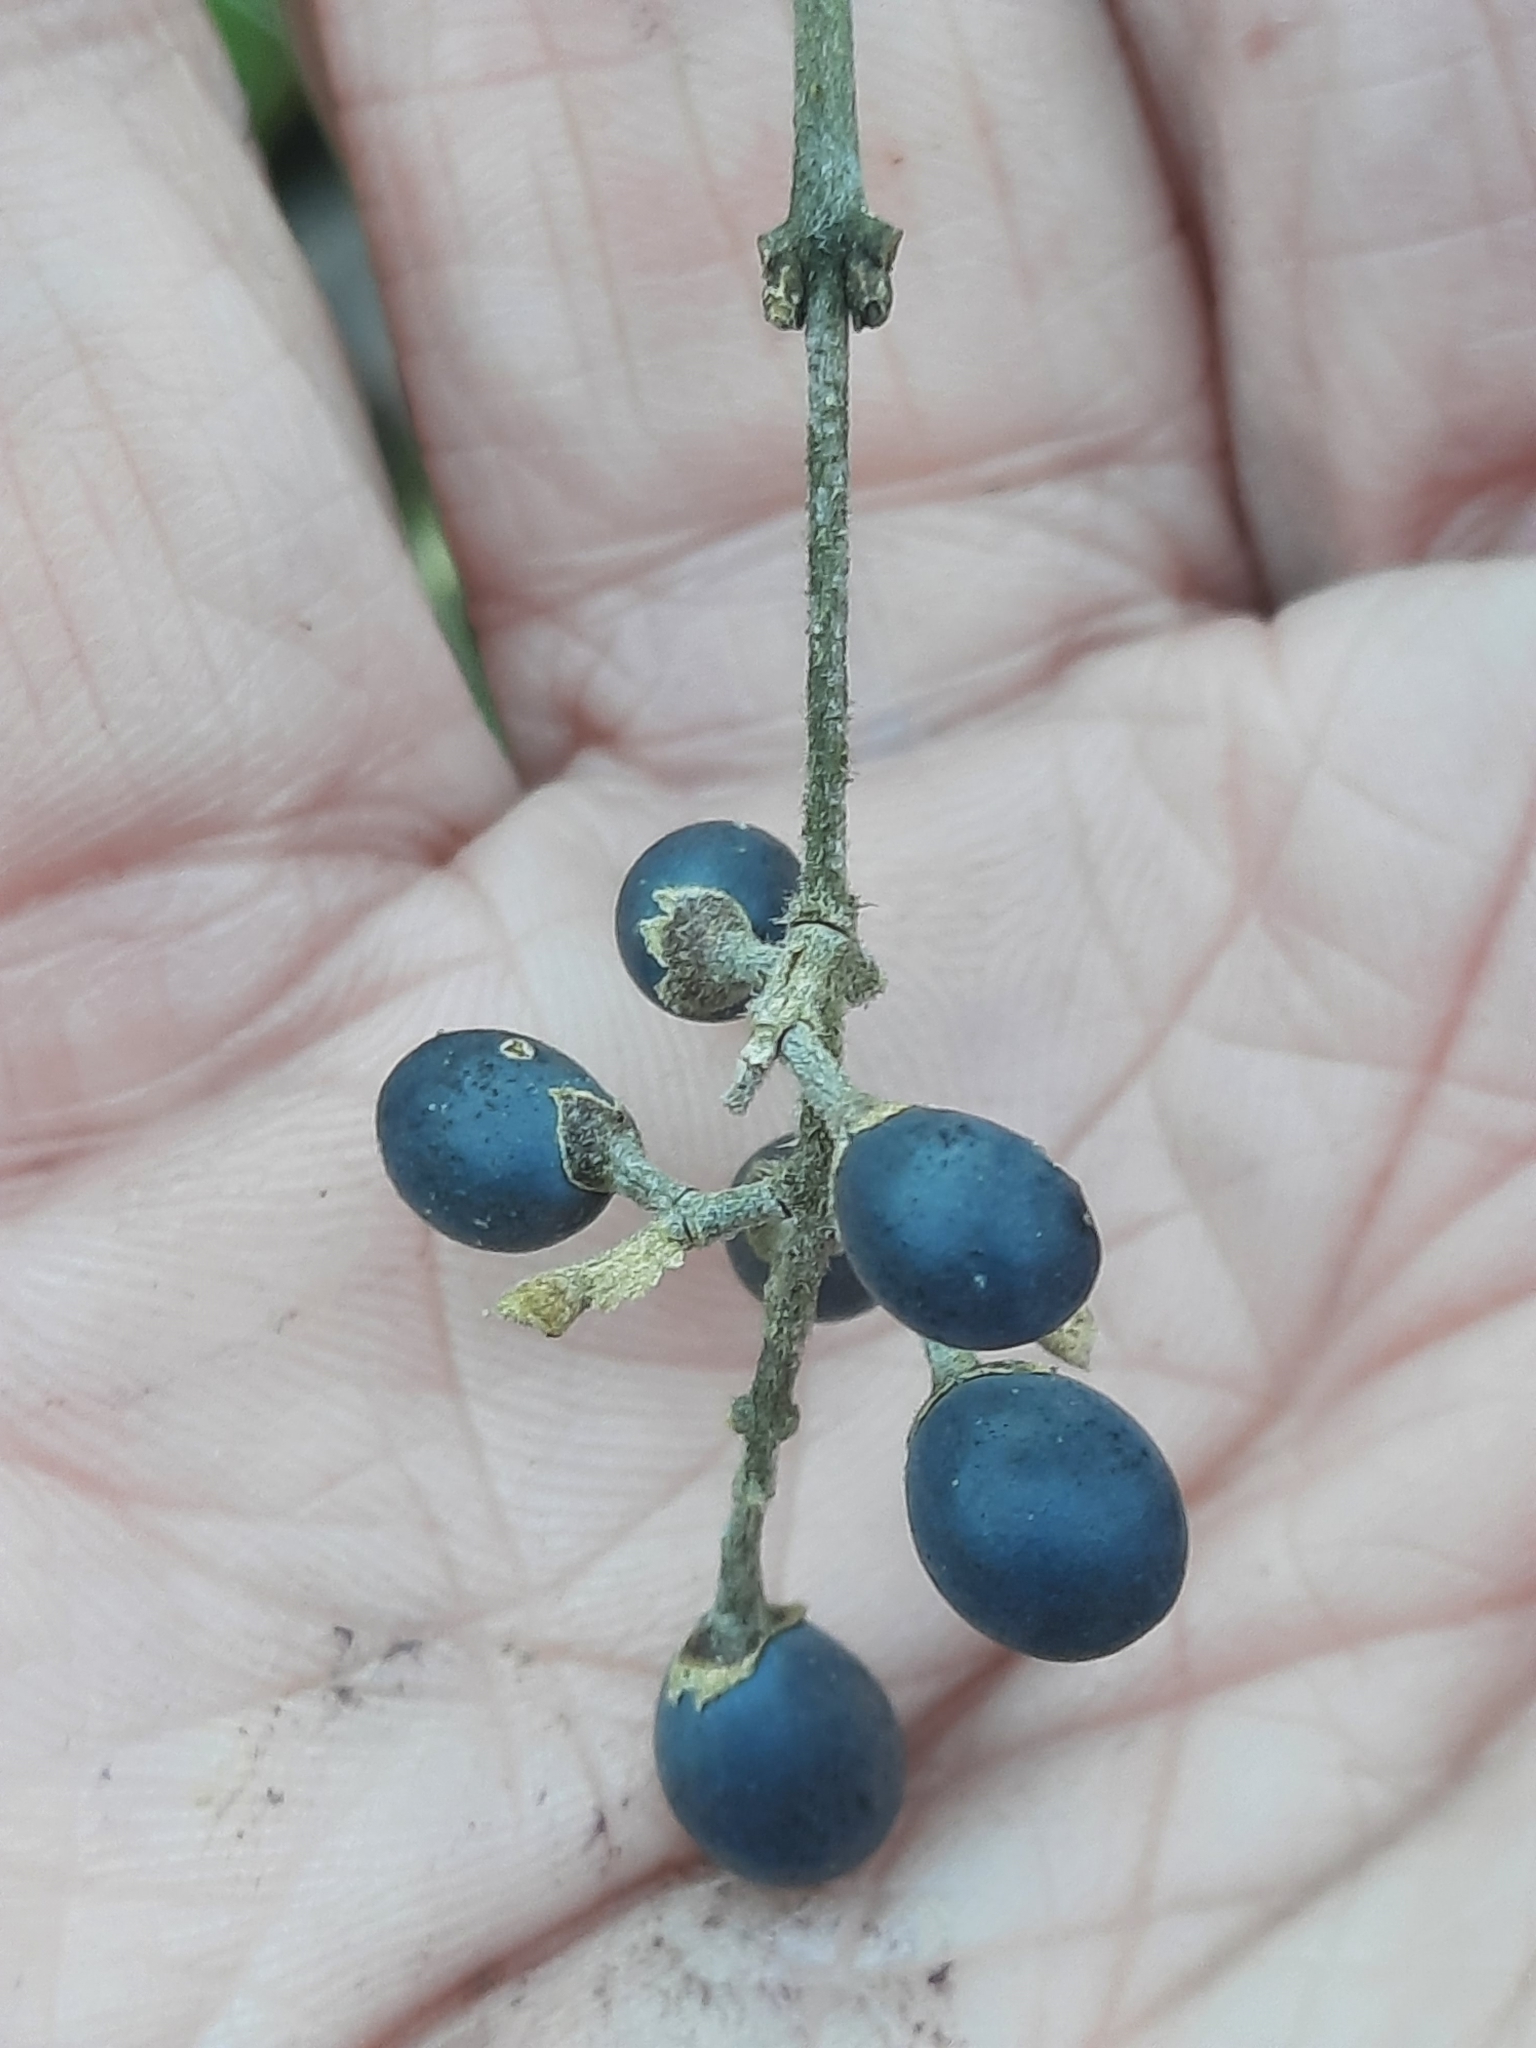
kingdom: Plantae
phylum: Tracheophyta
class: Magnoliopsida
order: Lamiales
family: Oleaceae
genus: Ligustrum
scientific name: Ligustrum obtusifolium
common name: Border privet
